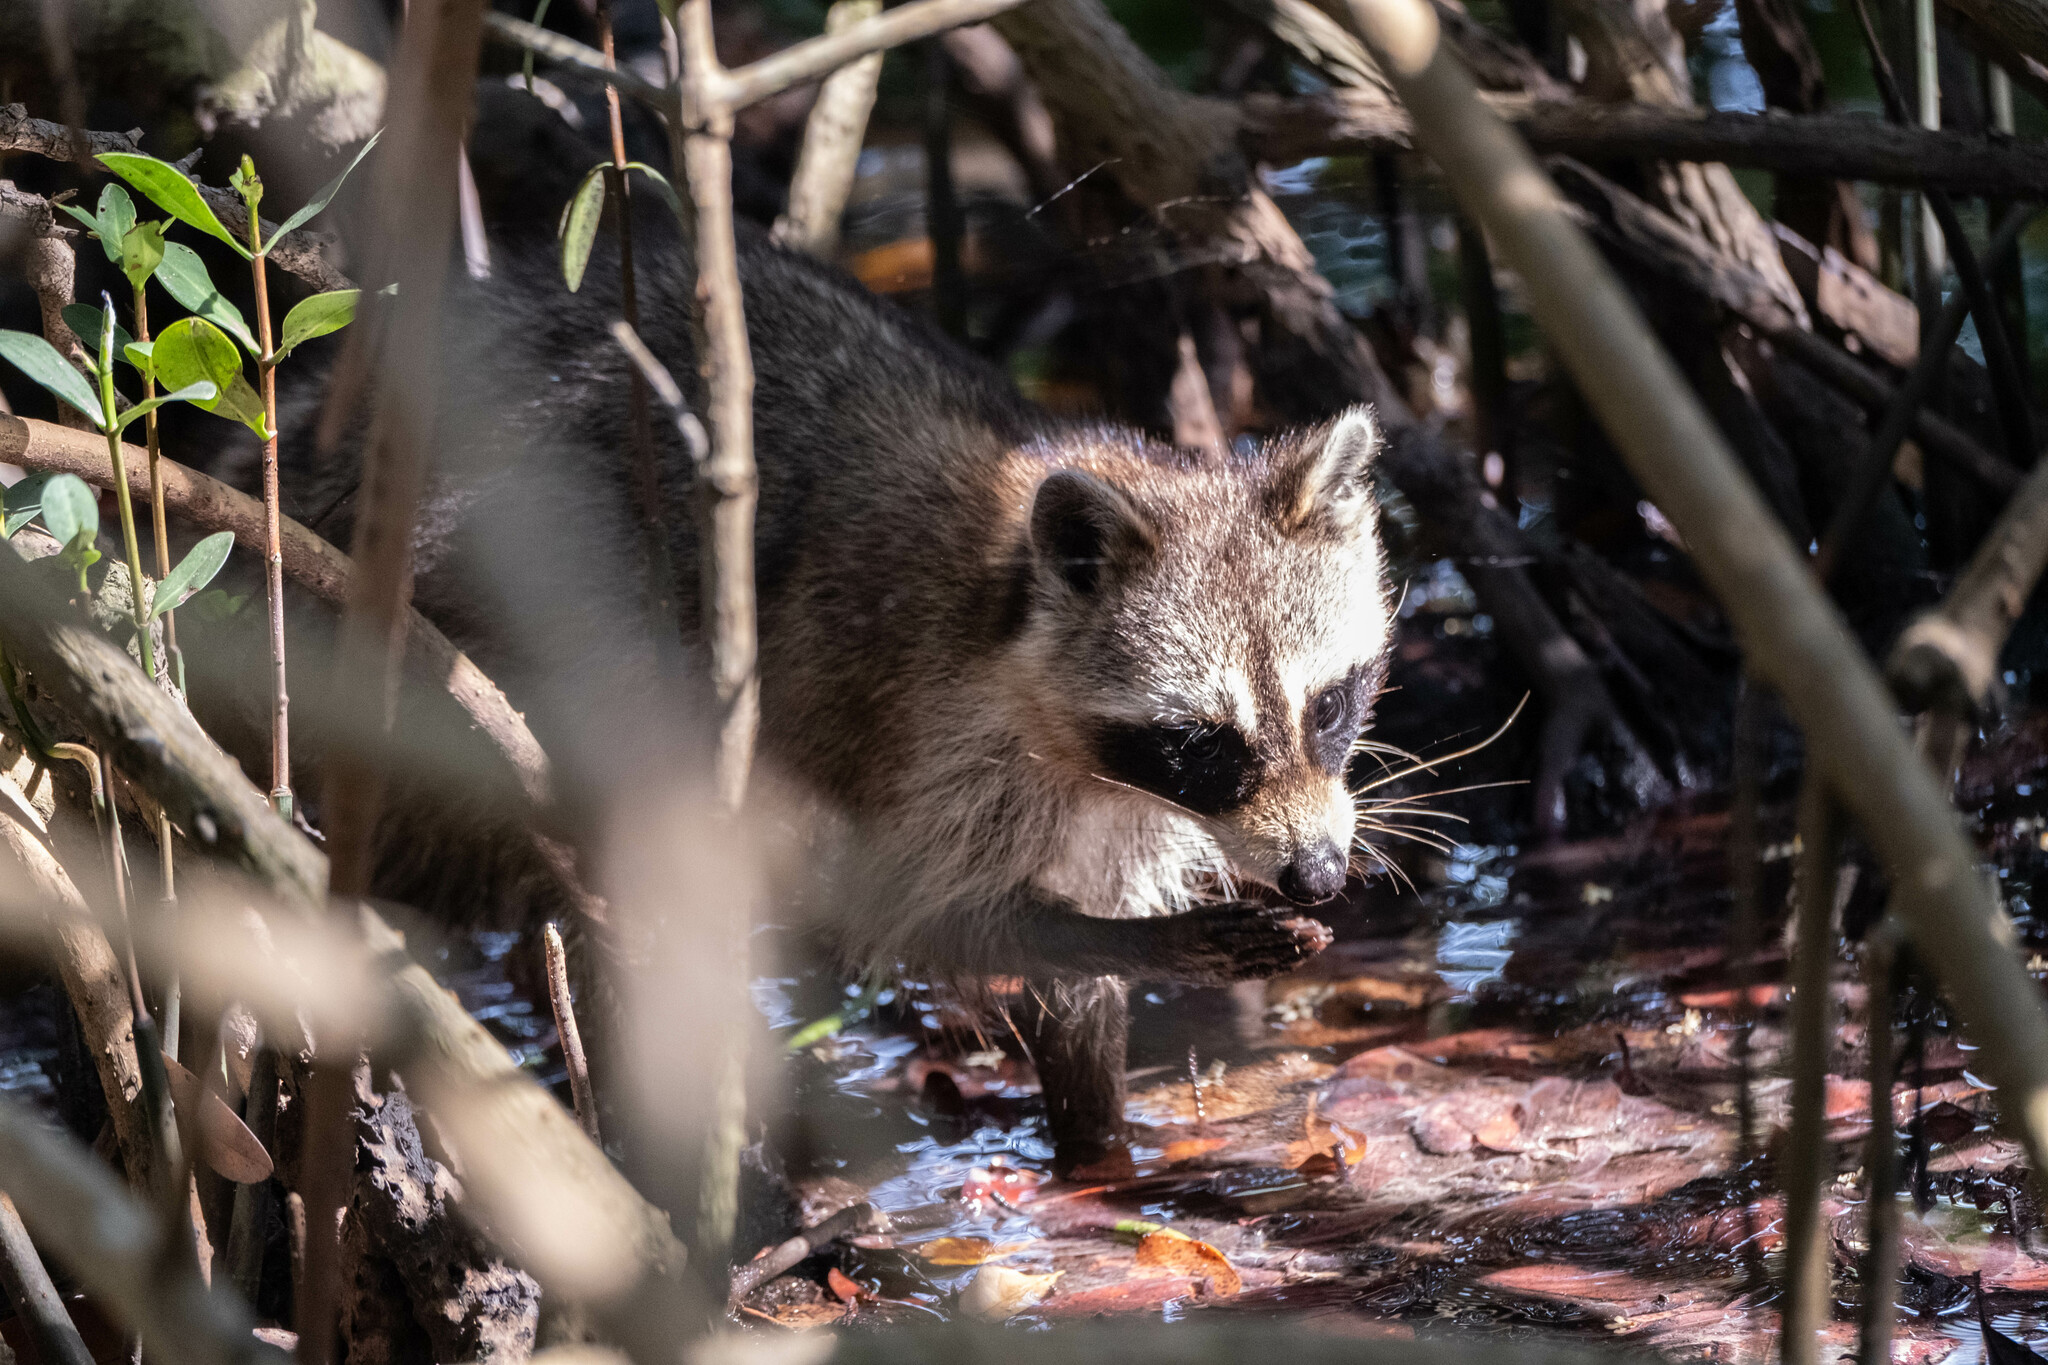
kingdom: Animalia
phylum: Chordata
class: Mammalia
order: Carnivora
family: Procyonidae
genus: Procyon
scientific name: Procyon lotor
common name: Raccoon
